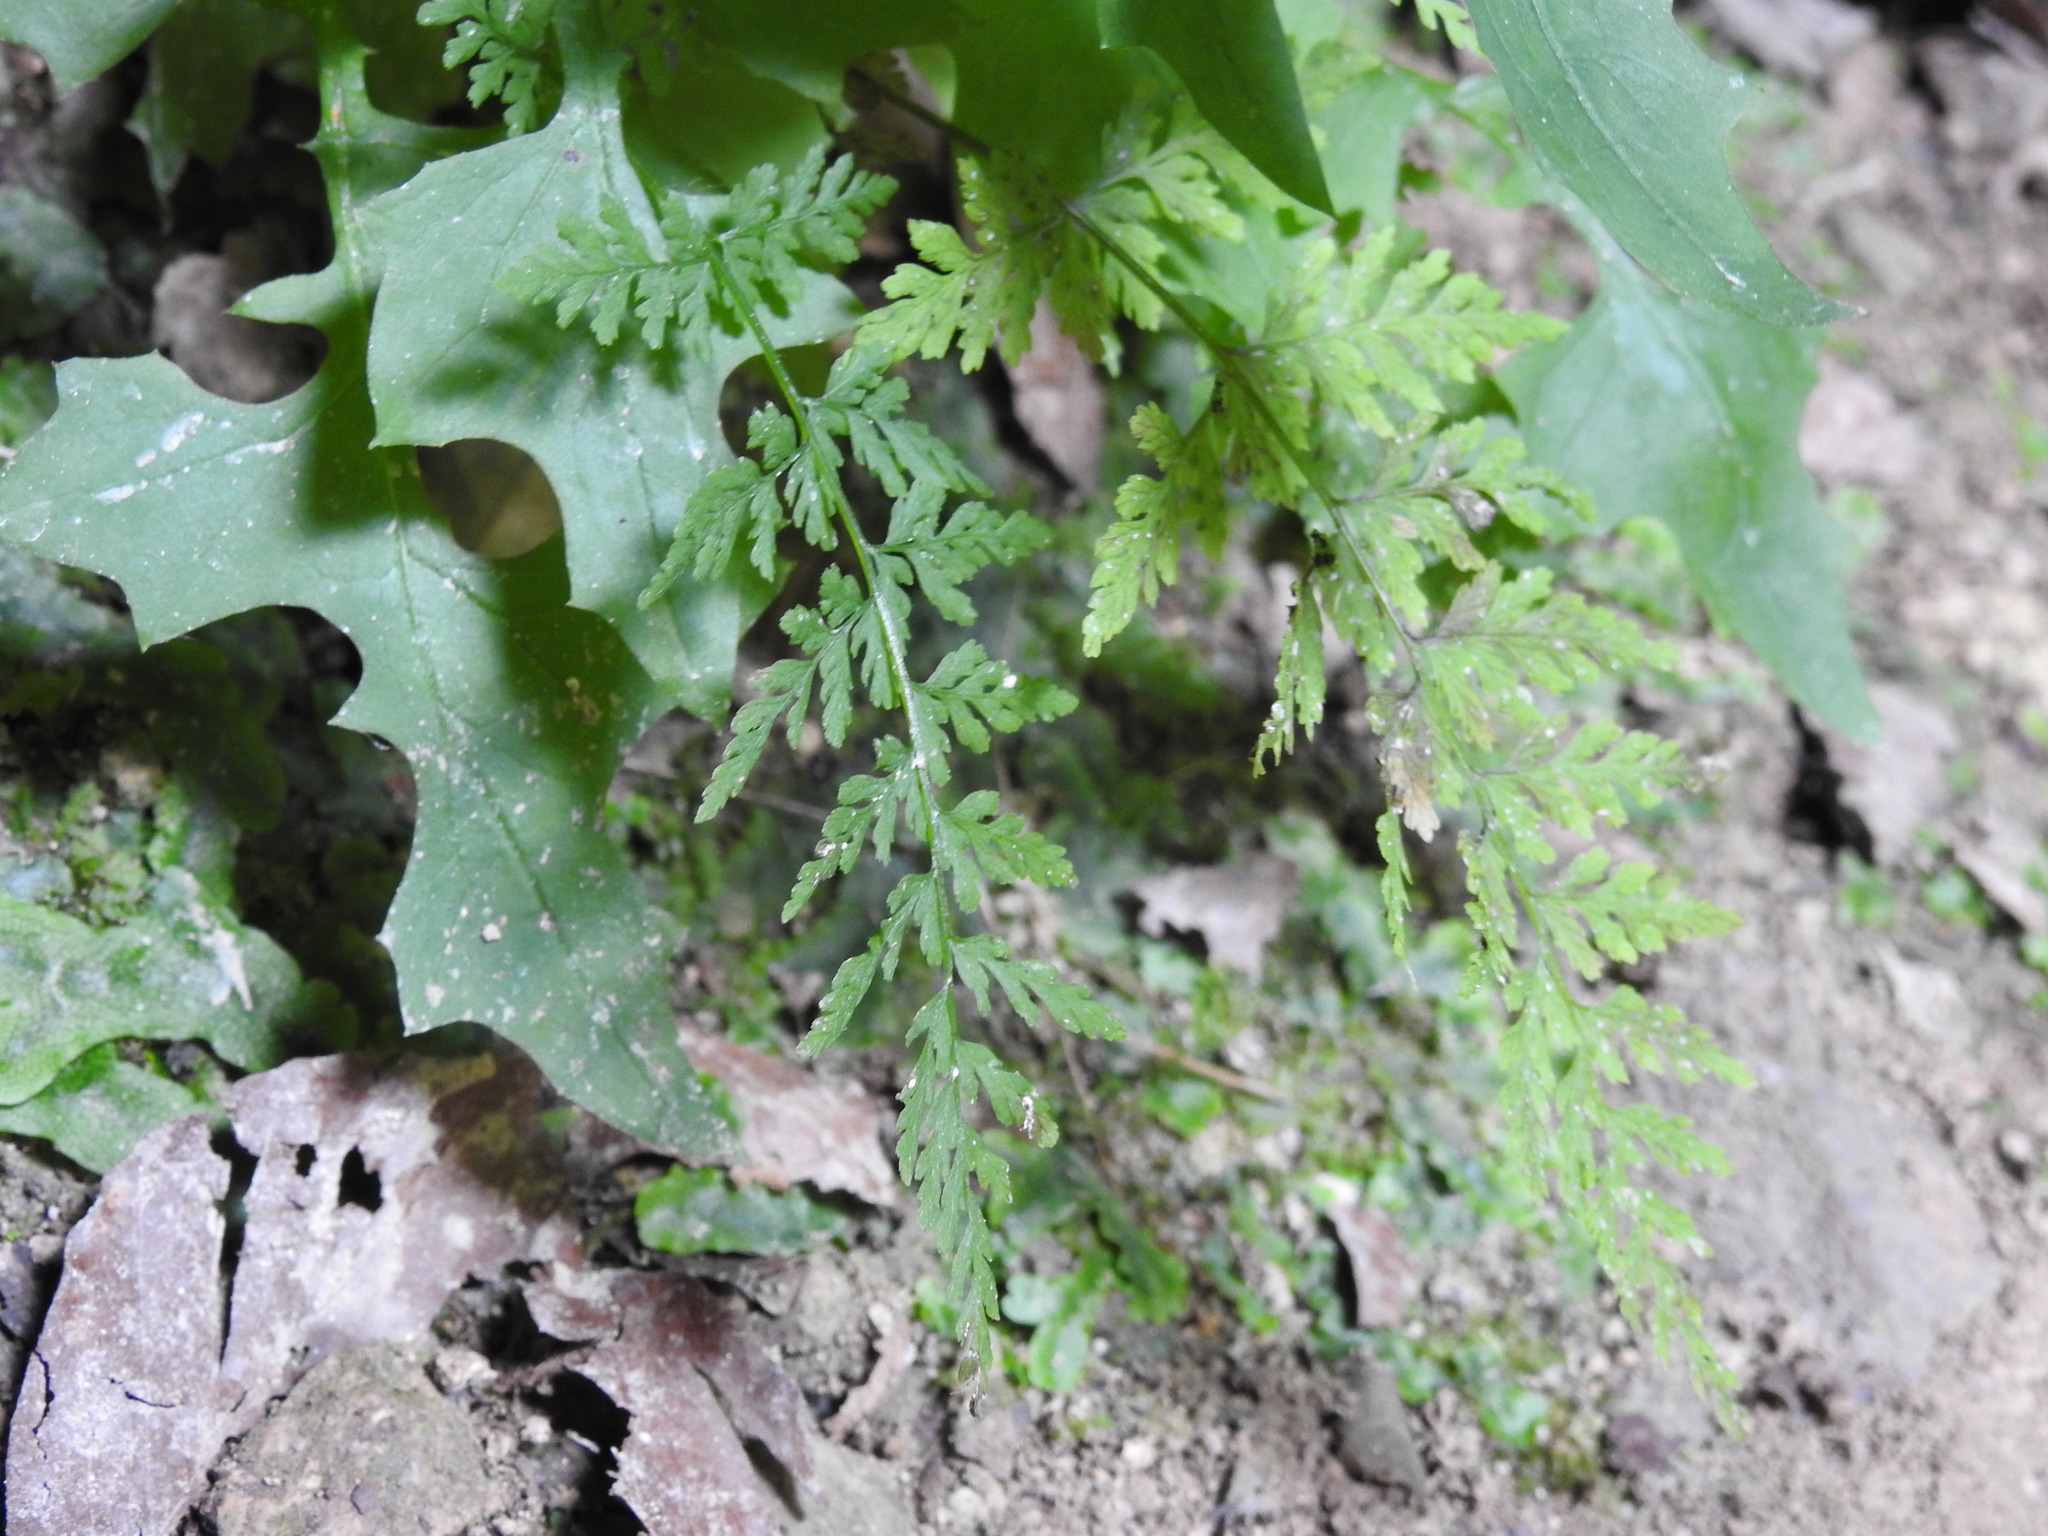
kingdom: Plantae
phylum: Tracheophyta
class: Polypodiopsida
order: Polypodiales
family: Cystopteridaceae
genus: Cystopteris
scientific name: Cystopteris fragilis
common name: Brittle bladder fern
